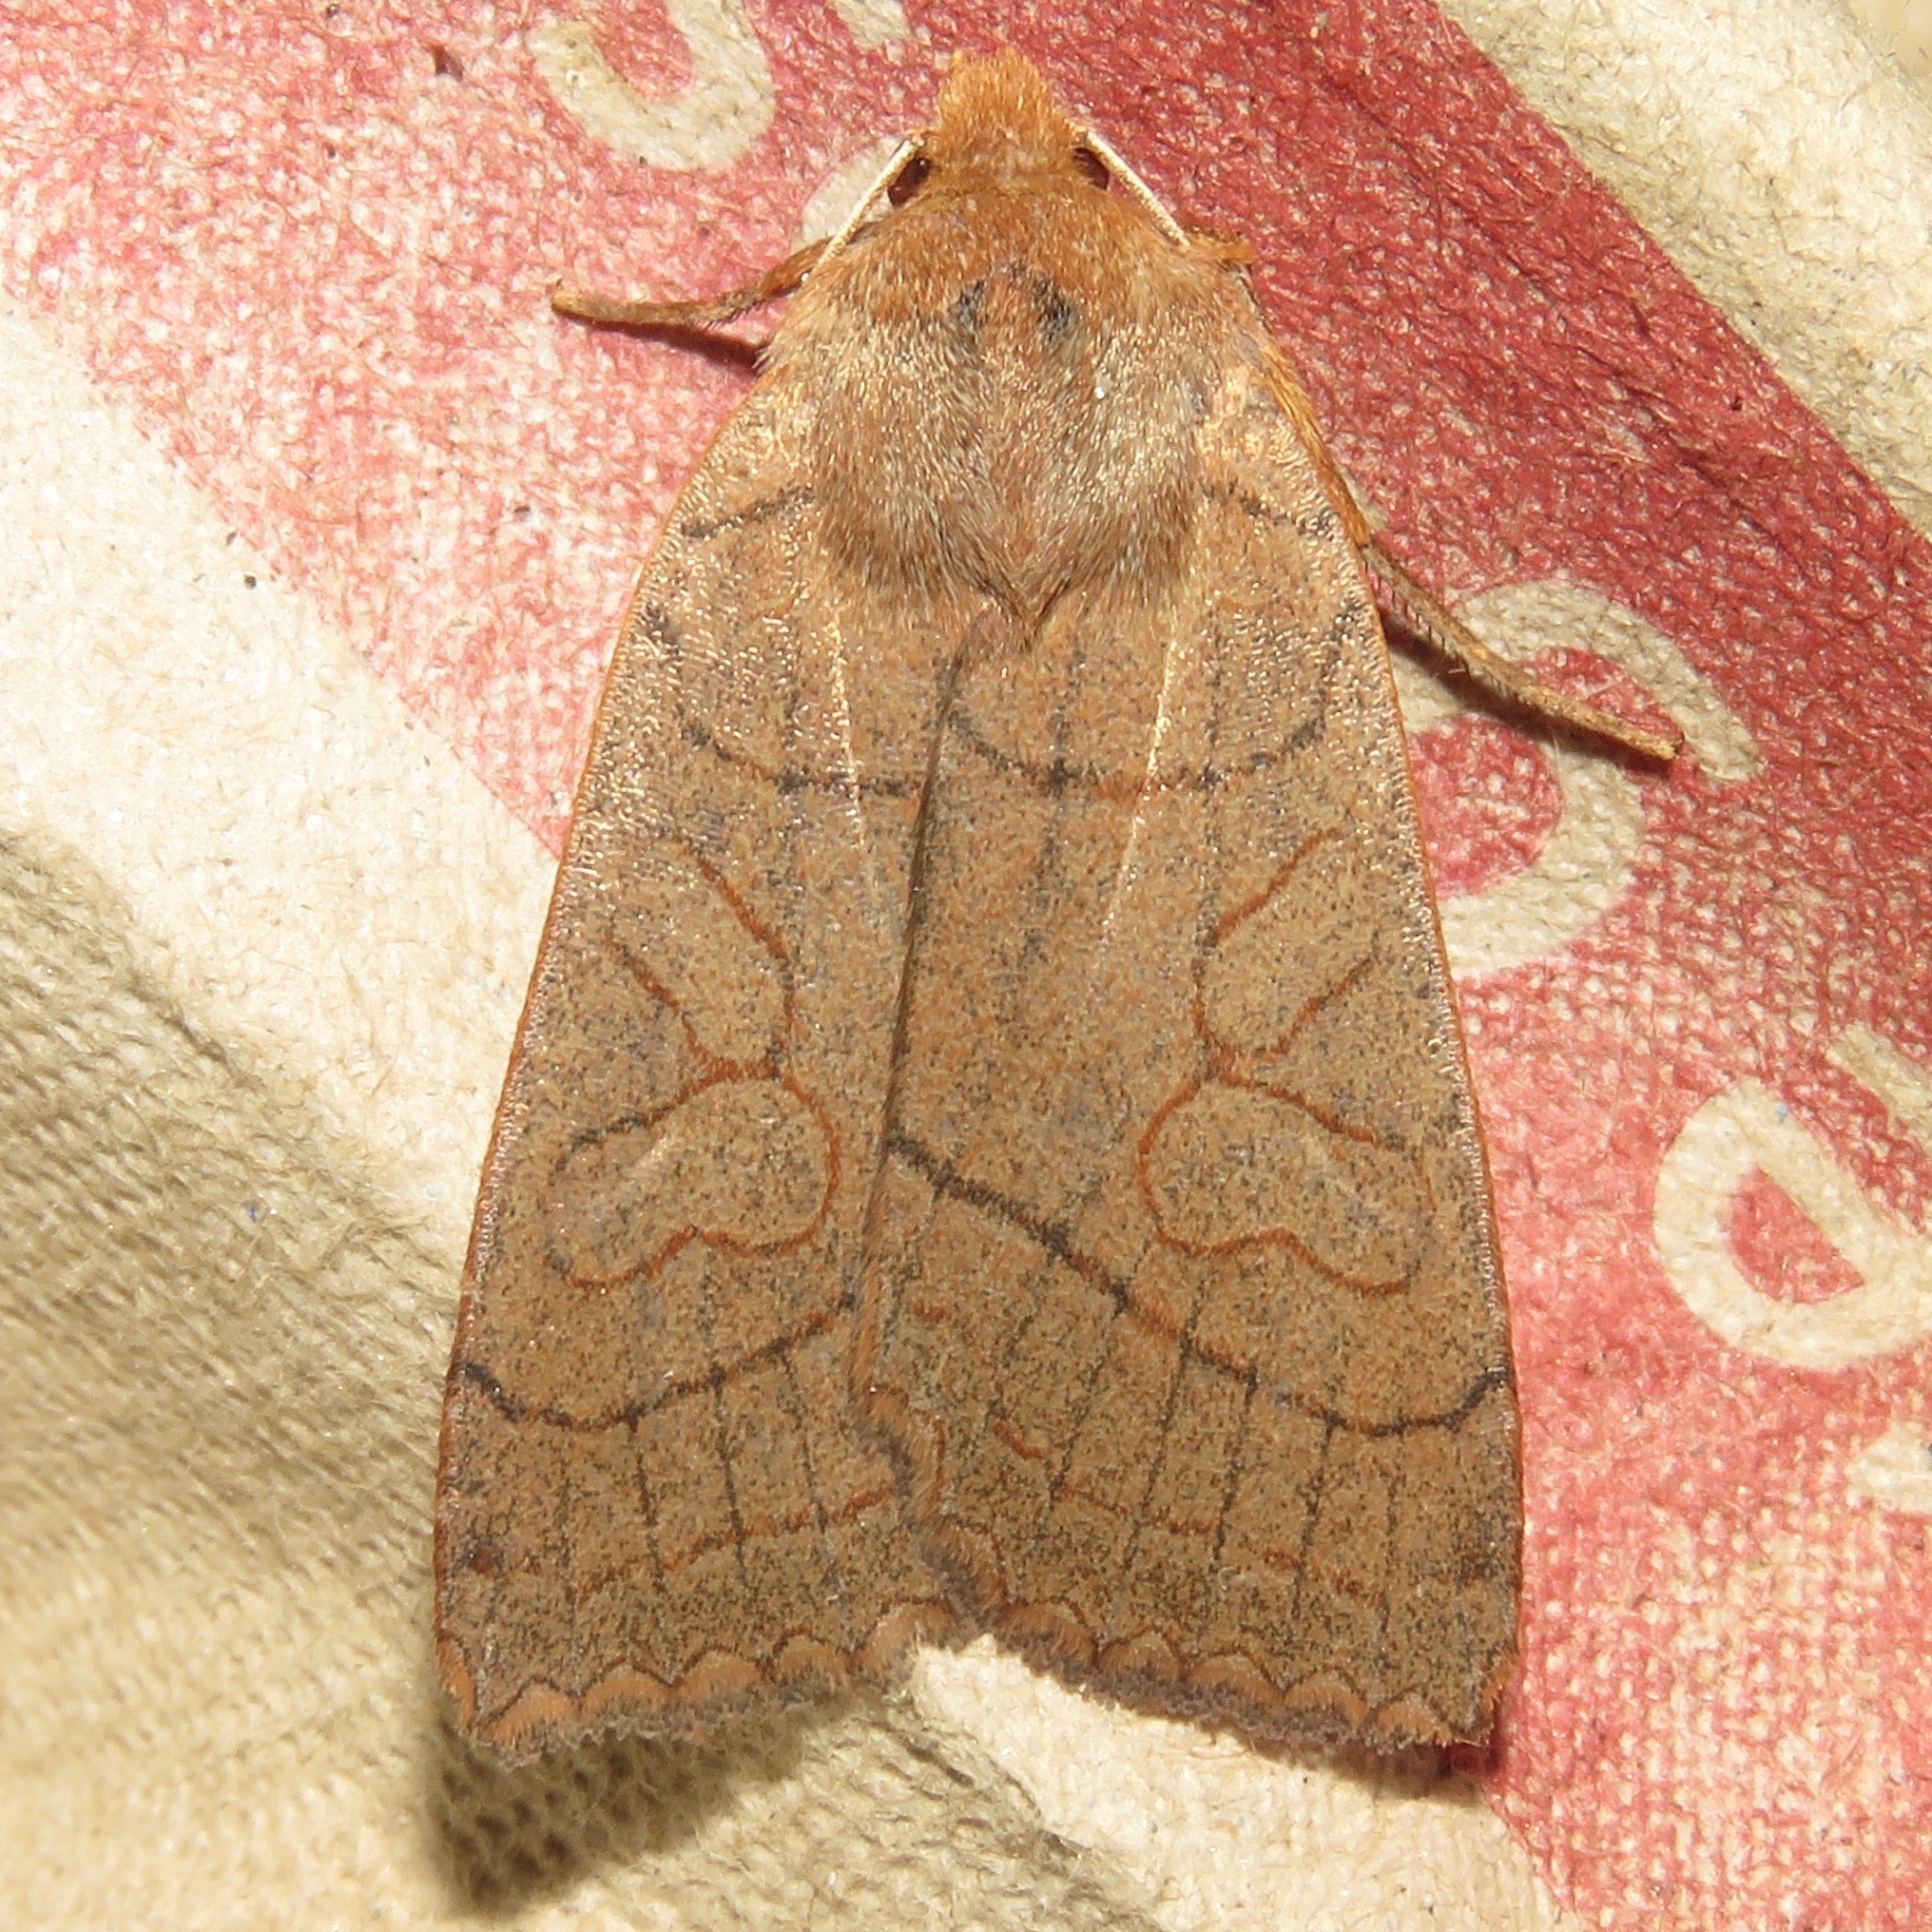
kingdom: Animalia
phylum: Arthropoda
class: Insecta
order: Lepidoptera
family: Noctuidae
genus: Metaxaglaea
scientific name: Metaxaglaea inulta
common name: Unsated sallow
